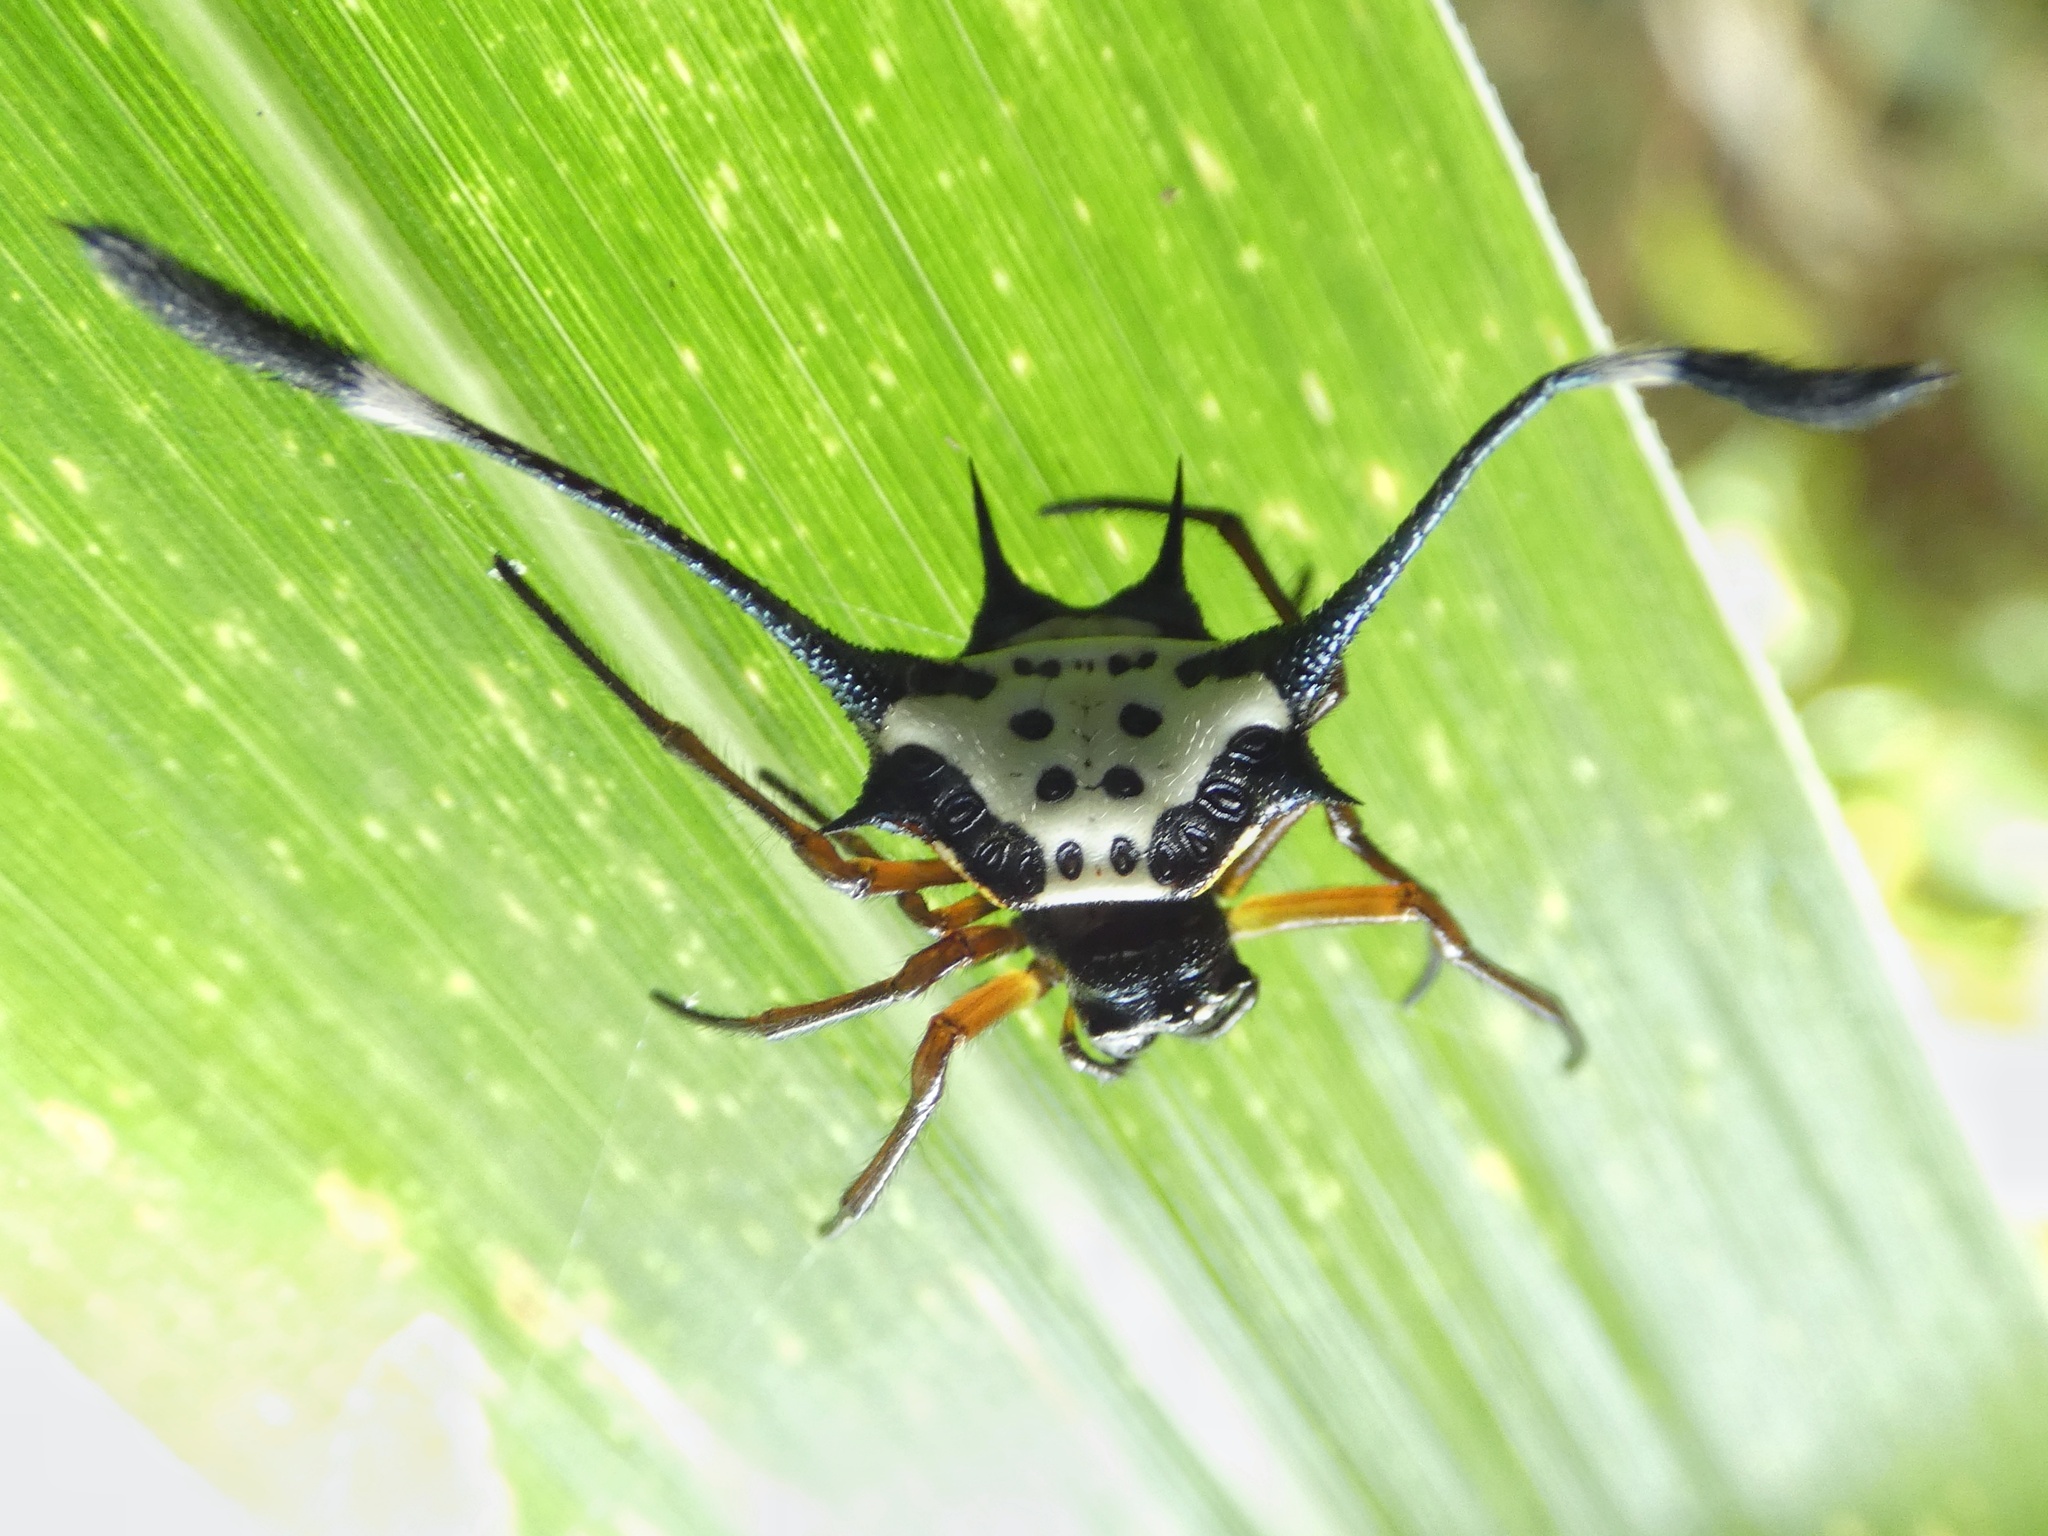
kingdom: Animalia
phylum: Arthropoda
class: Arachnida
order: Araneae
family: Araneidae
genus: Gasteracantha
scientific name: Gasteracantha clavigera
